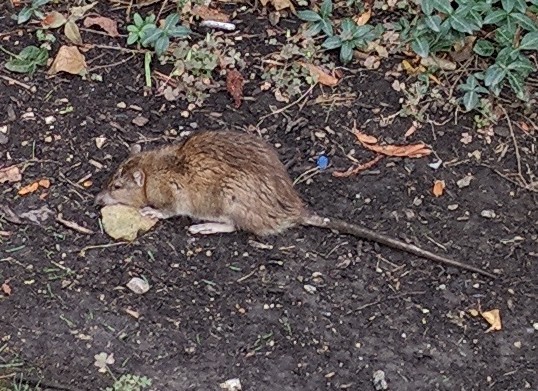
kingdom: Animalia
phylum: Chordata
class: Mammalia
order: Rodentia
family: Muridae
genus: Rattus
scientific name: Rattus norvegicus
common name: Brown rat
